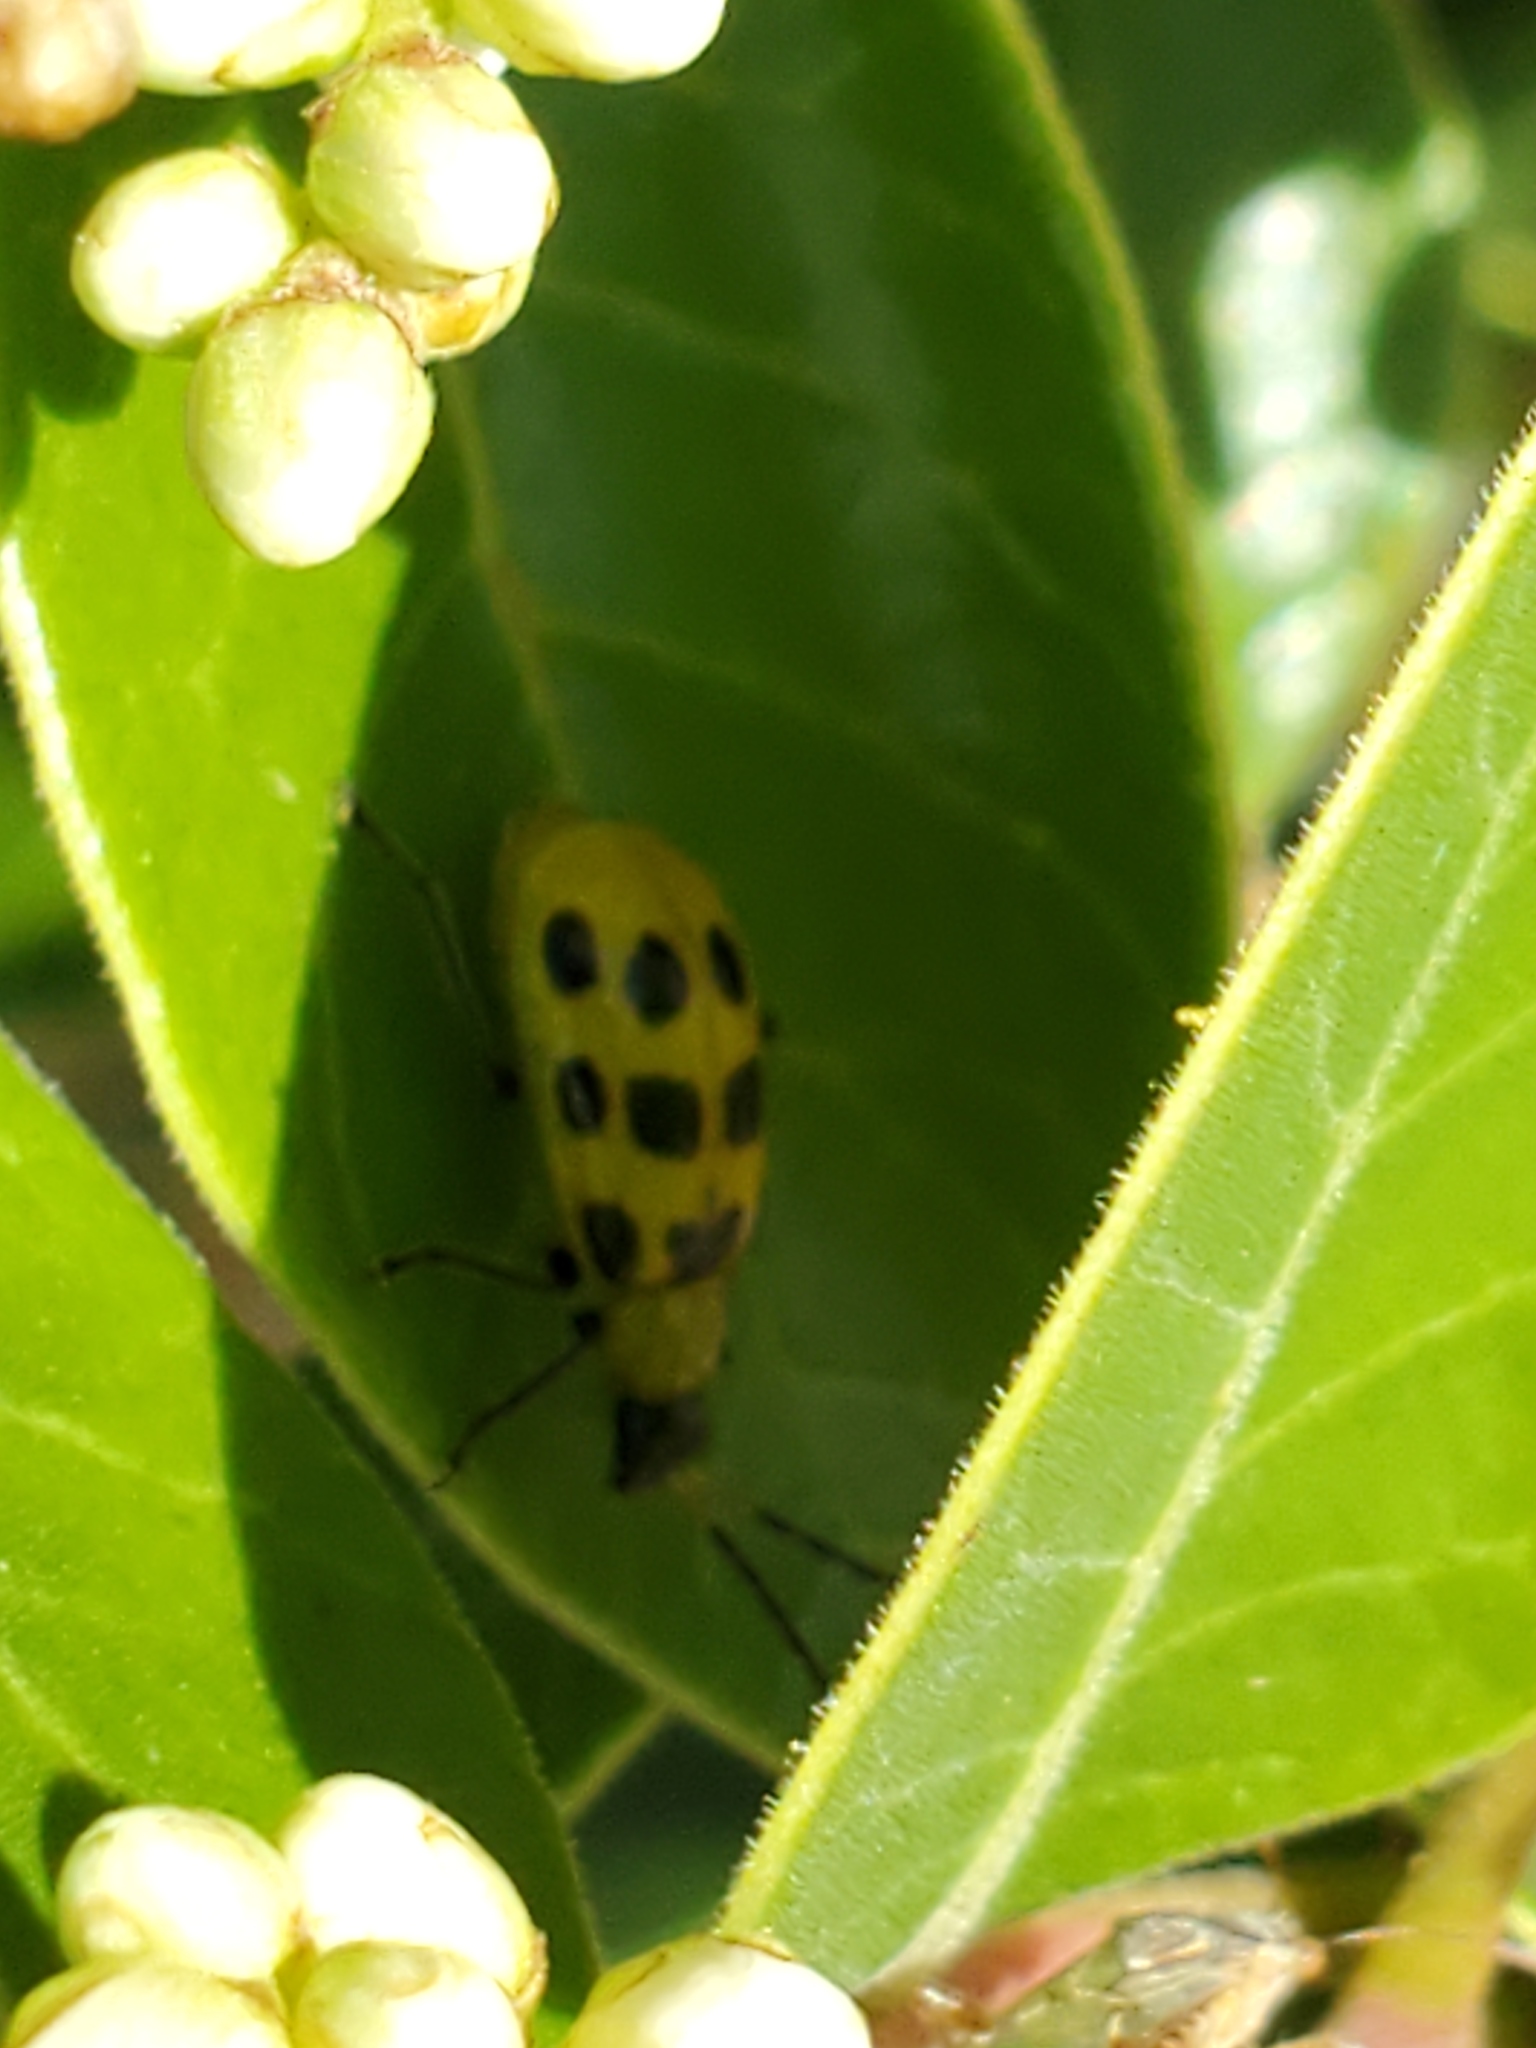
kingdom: Animalia
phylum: Arthropoda
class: Insecta
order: Coleoptera
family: Chrysomelidae
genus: Diabrotica
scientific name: Diabrotica undecimpunctata
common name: Spotted cucumber beetle
